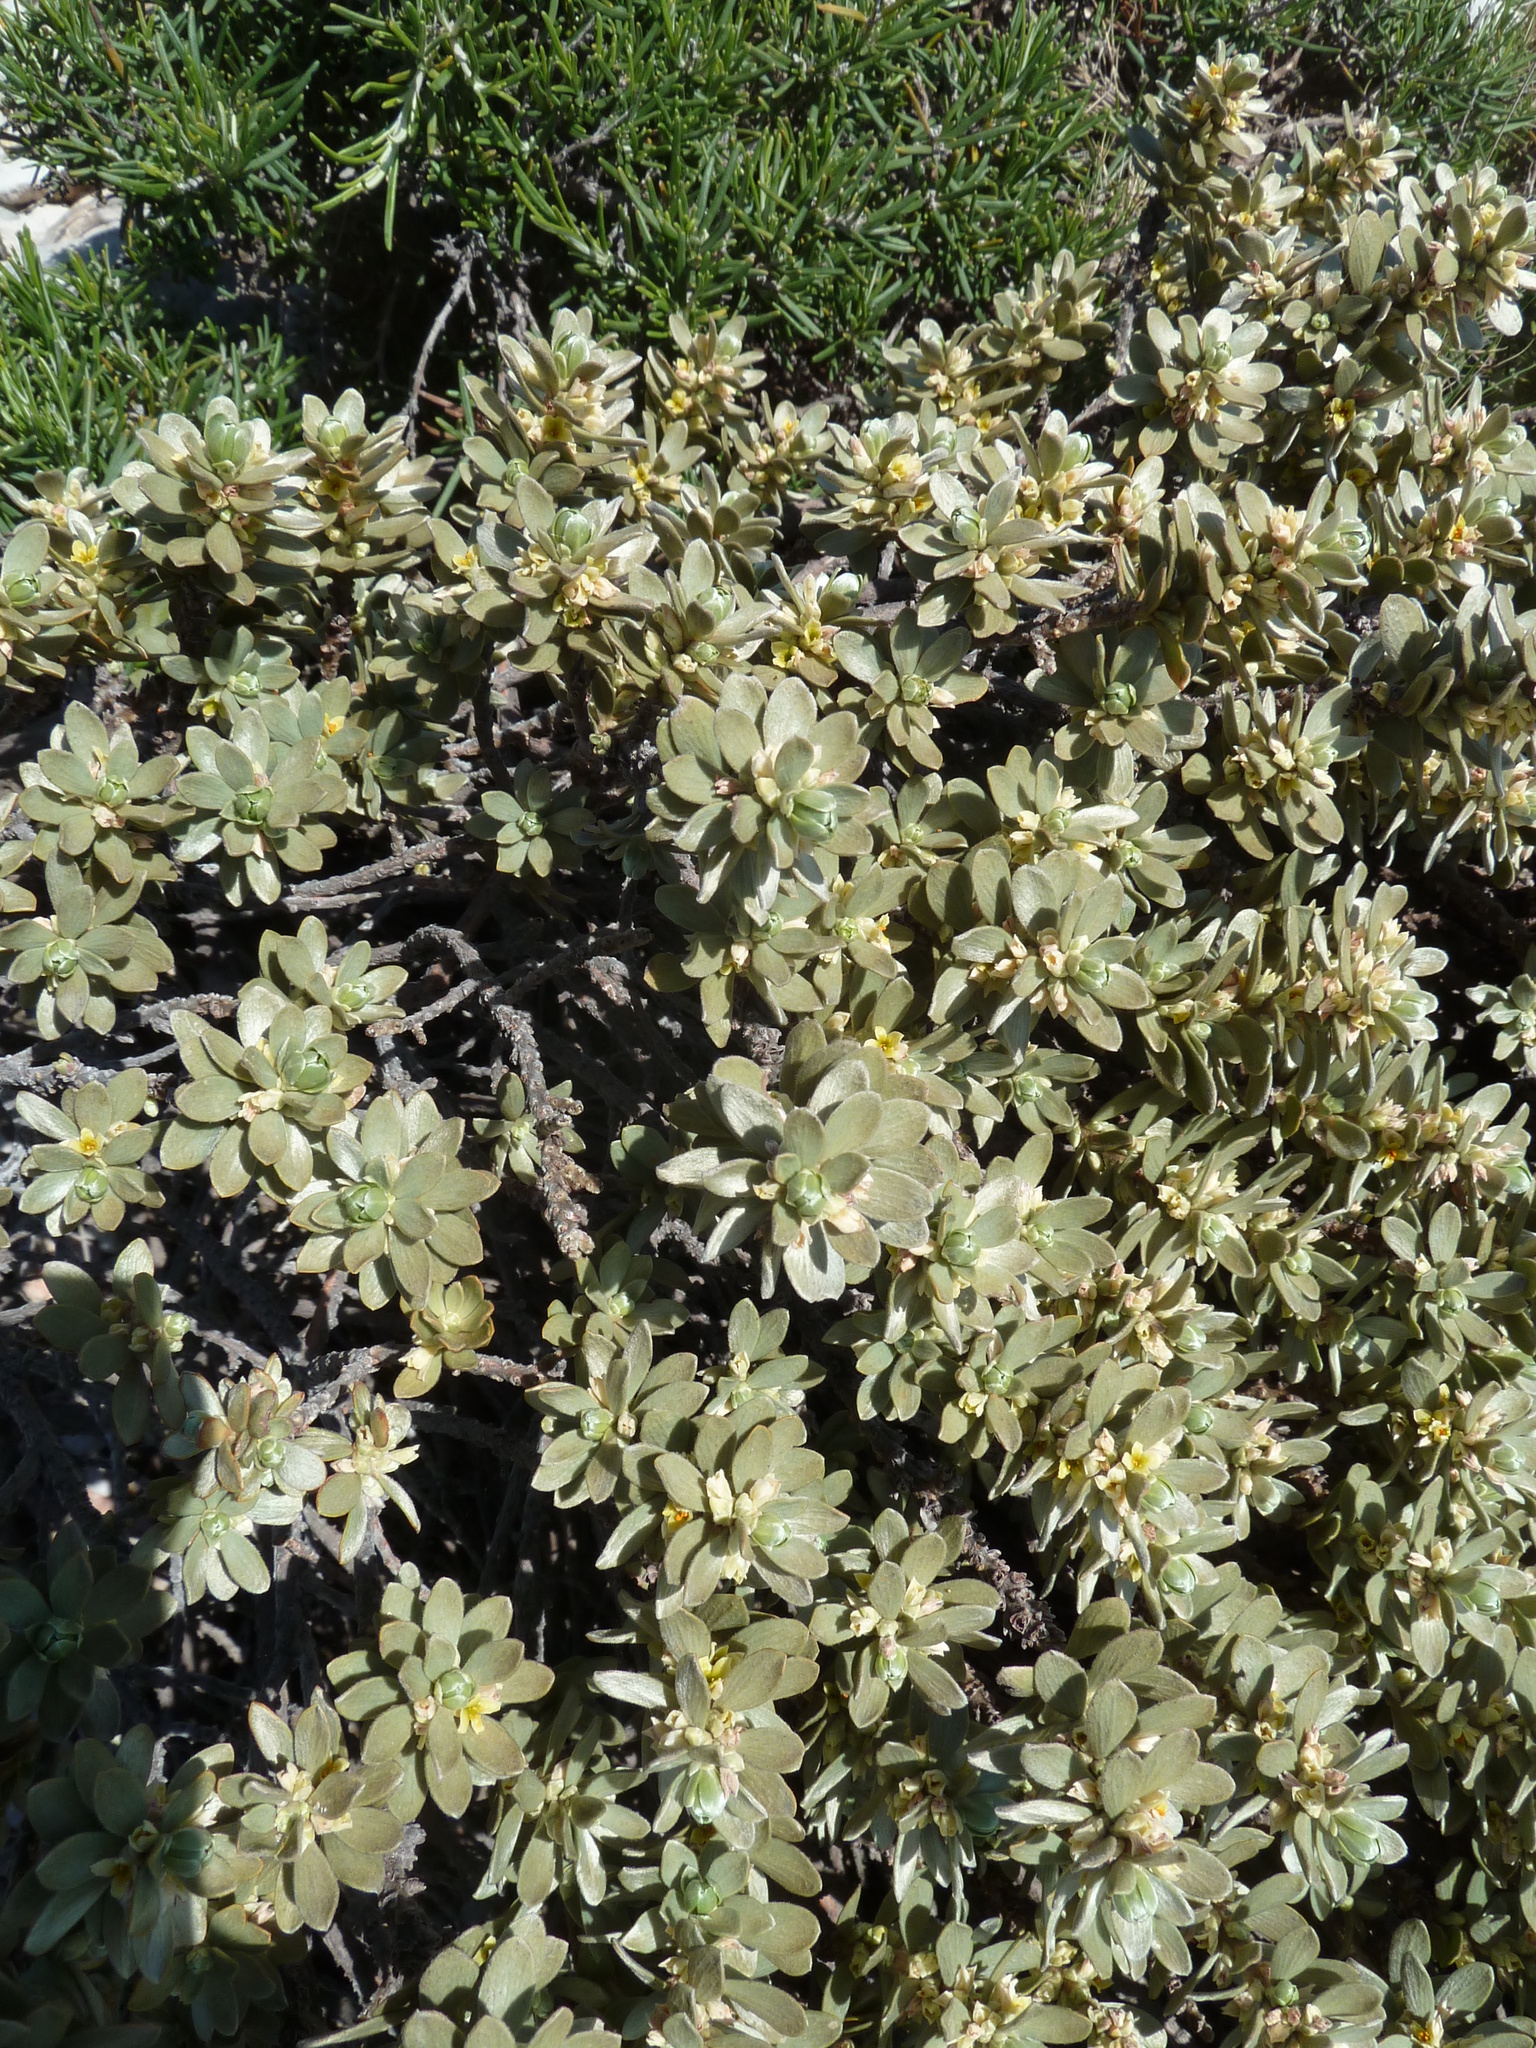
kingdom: Plantae
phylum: Tracheophyta
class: Magnoliopsida
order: Malvales
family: Thymelaeaceae
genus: Thymelaea
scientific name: Thymelaea tartonraira
